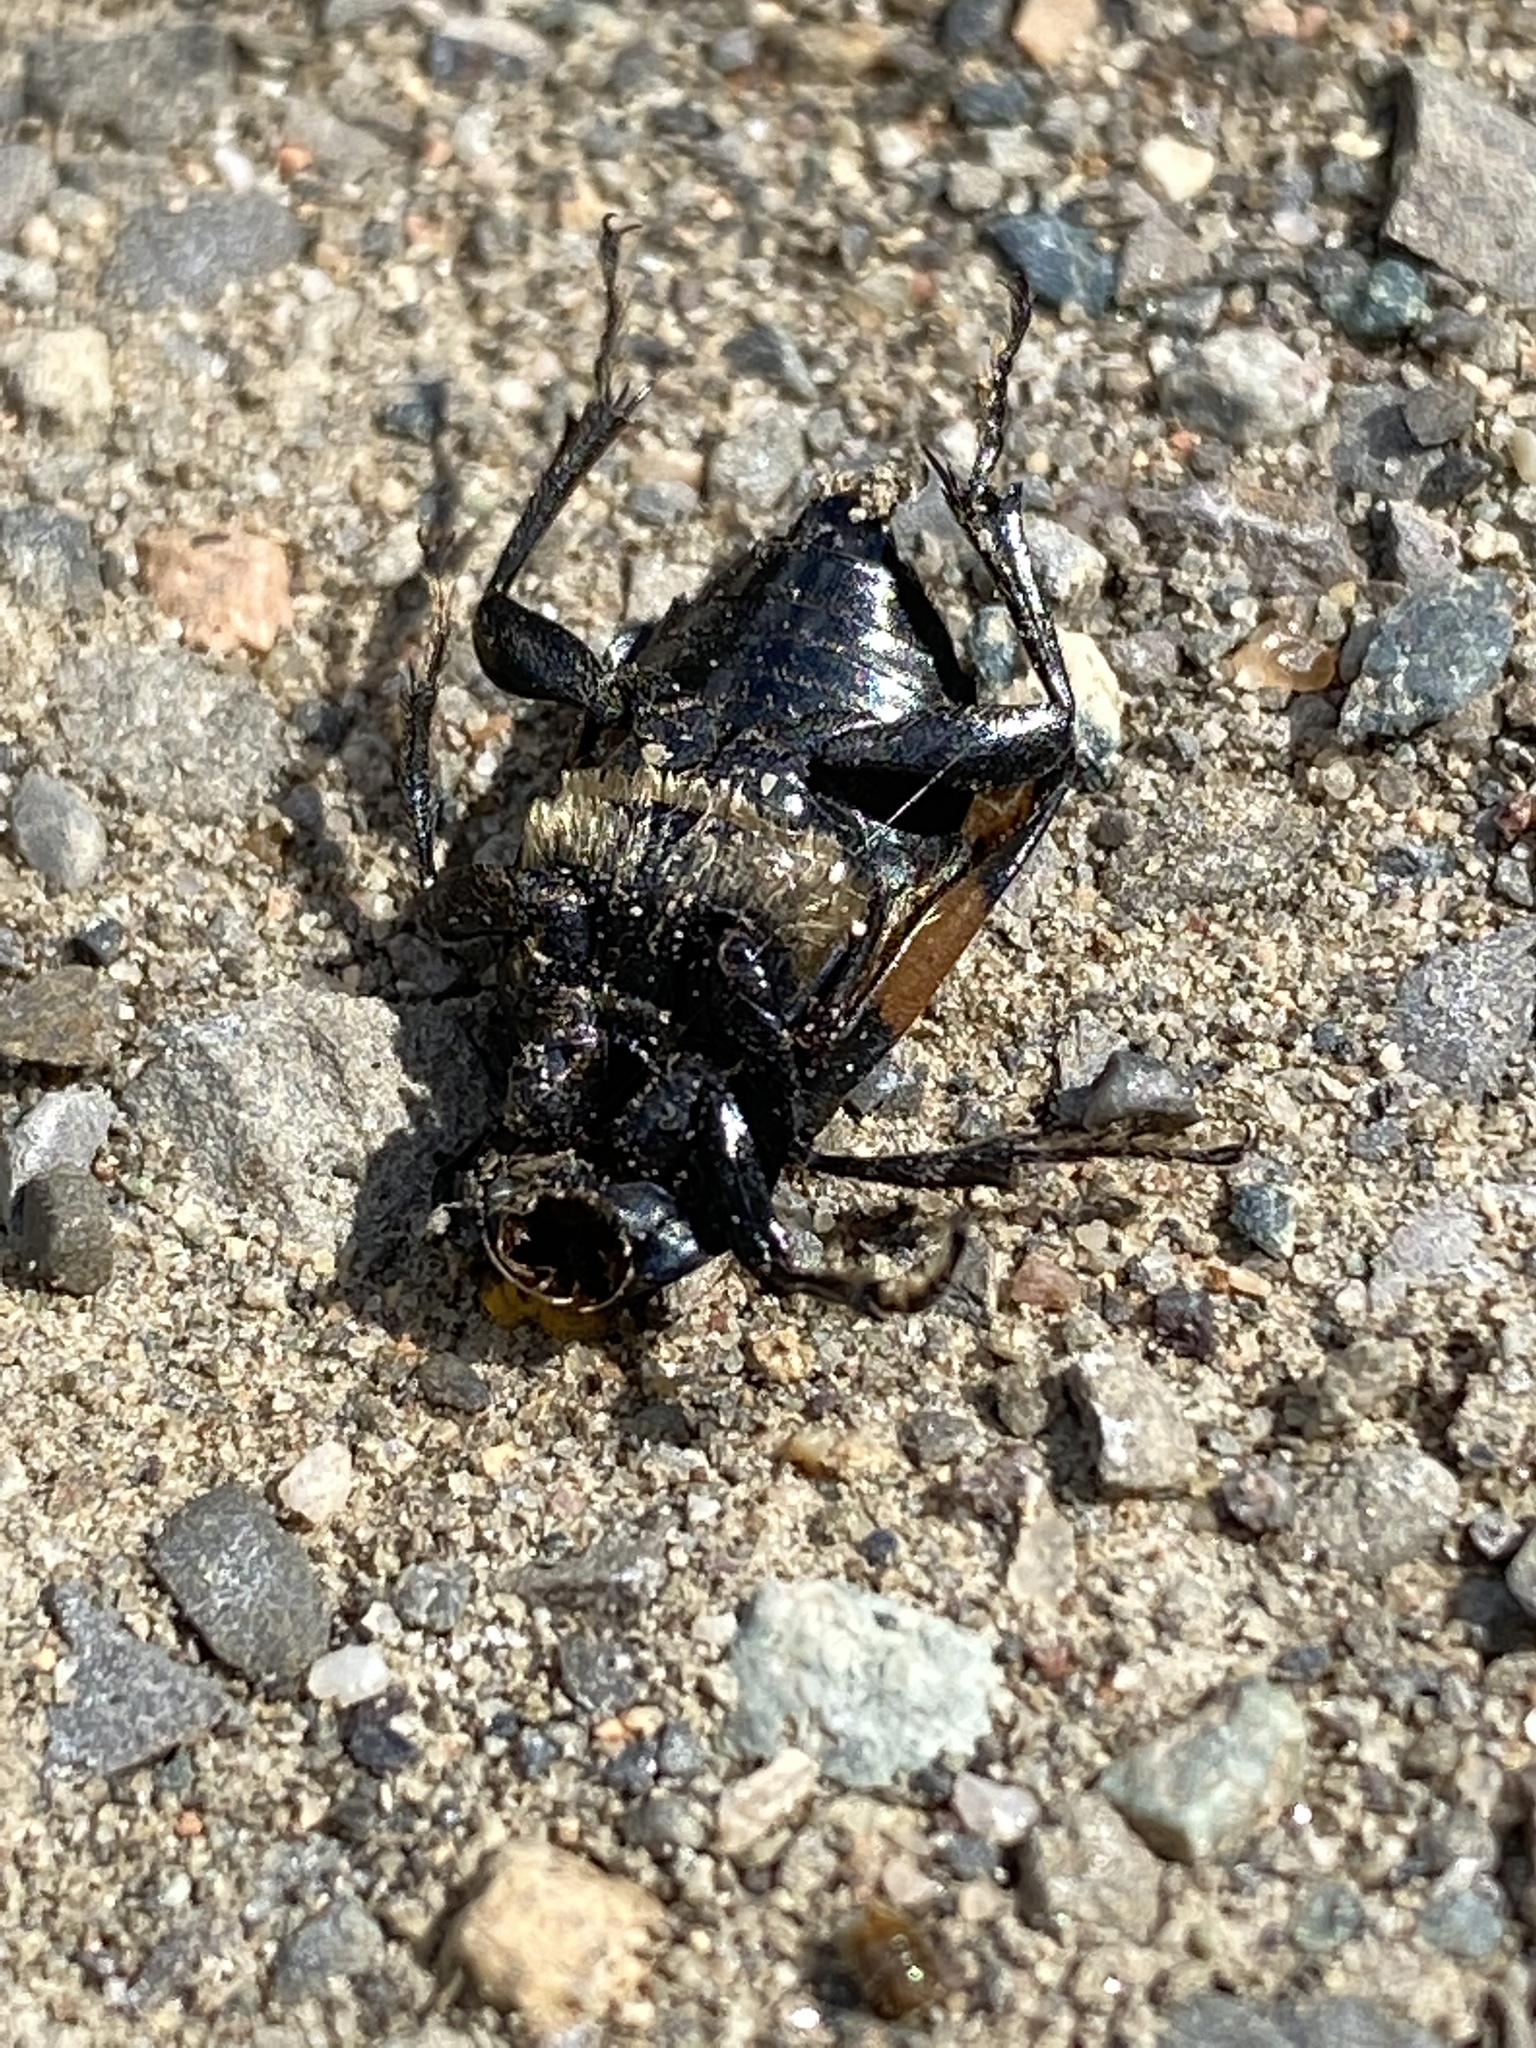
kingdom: Animalia
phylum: Arthropoda
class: Insecta
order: Coleoptera
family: Staphylinidae
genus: Nicrophorus
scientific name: Nicrophorus defodiens
